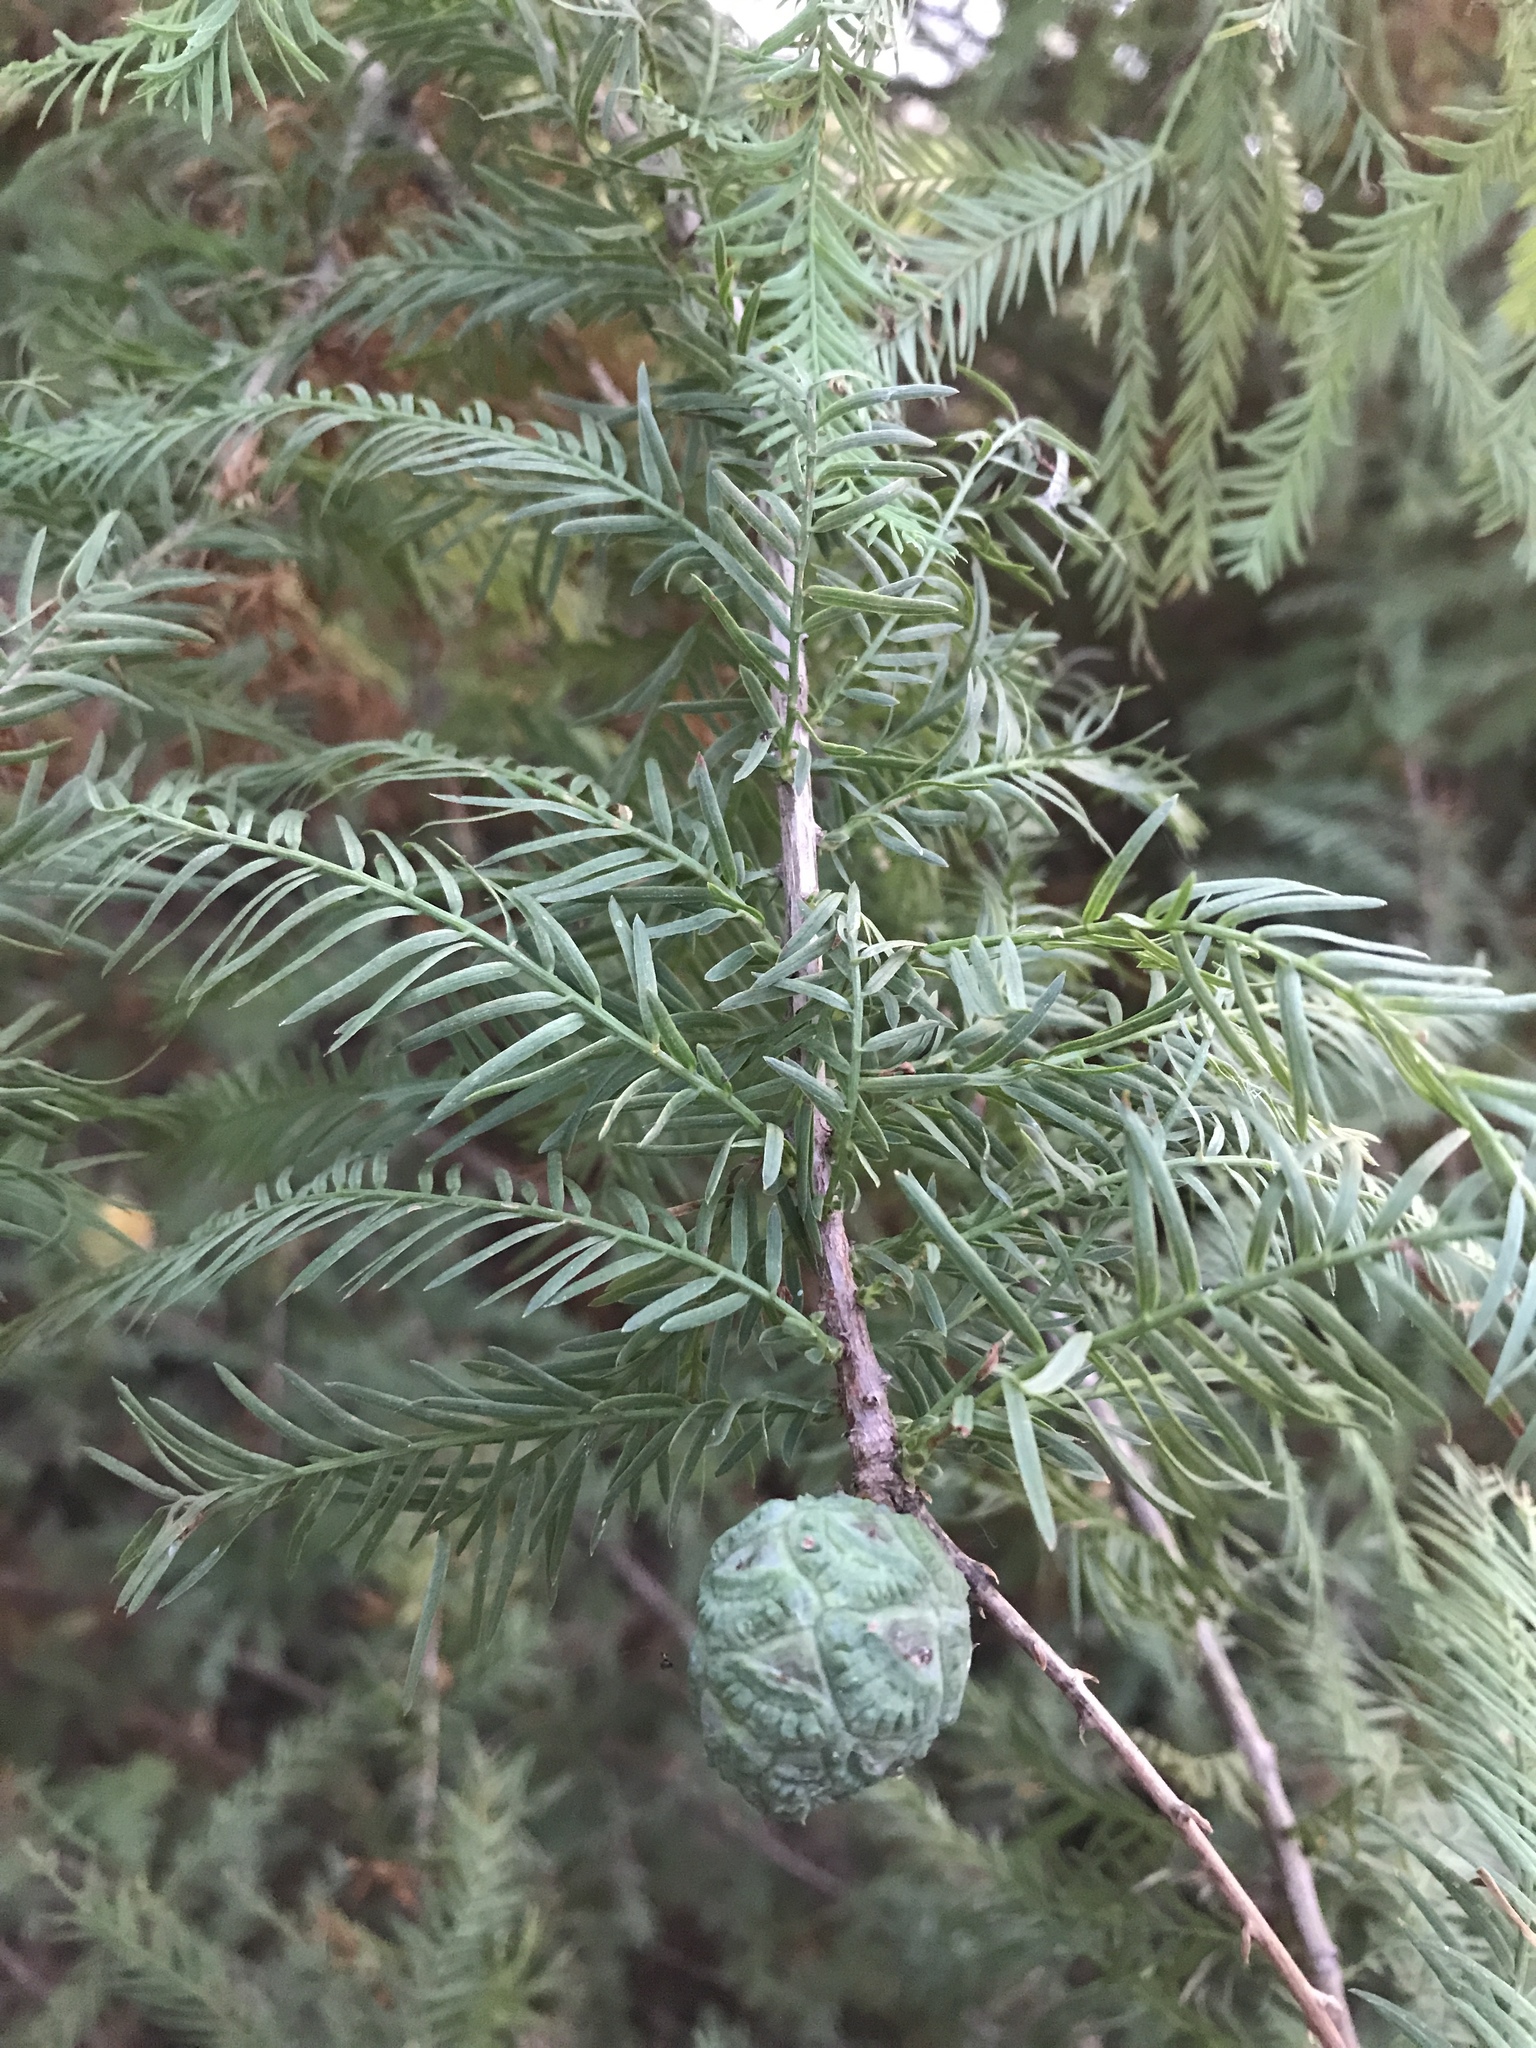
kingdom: Plantae
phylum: Tracheophyta
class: Pinopsida
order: Pinales
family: Cupressaceae
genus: Taxodium
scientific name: Taxodium distichum
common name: Bald cypress
